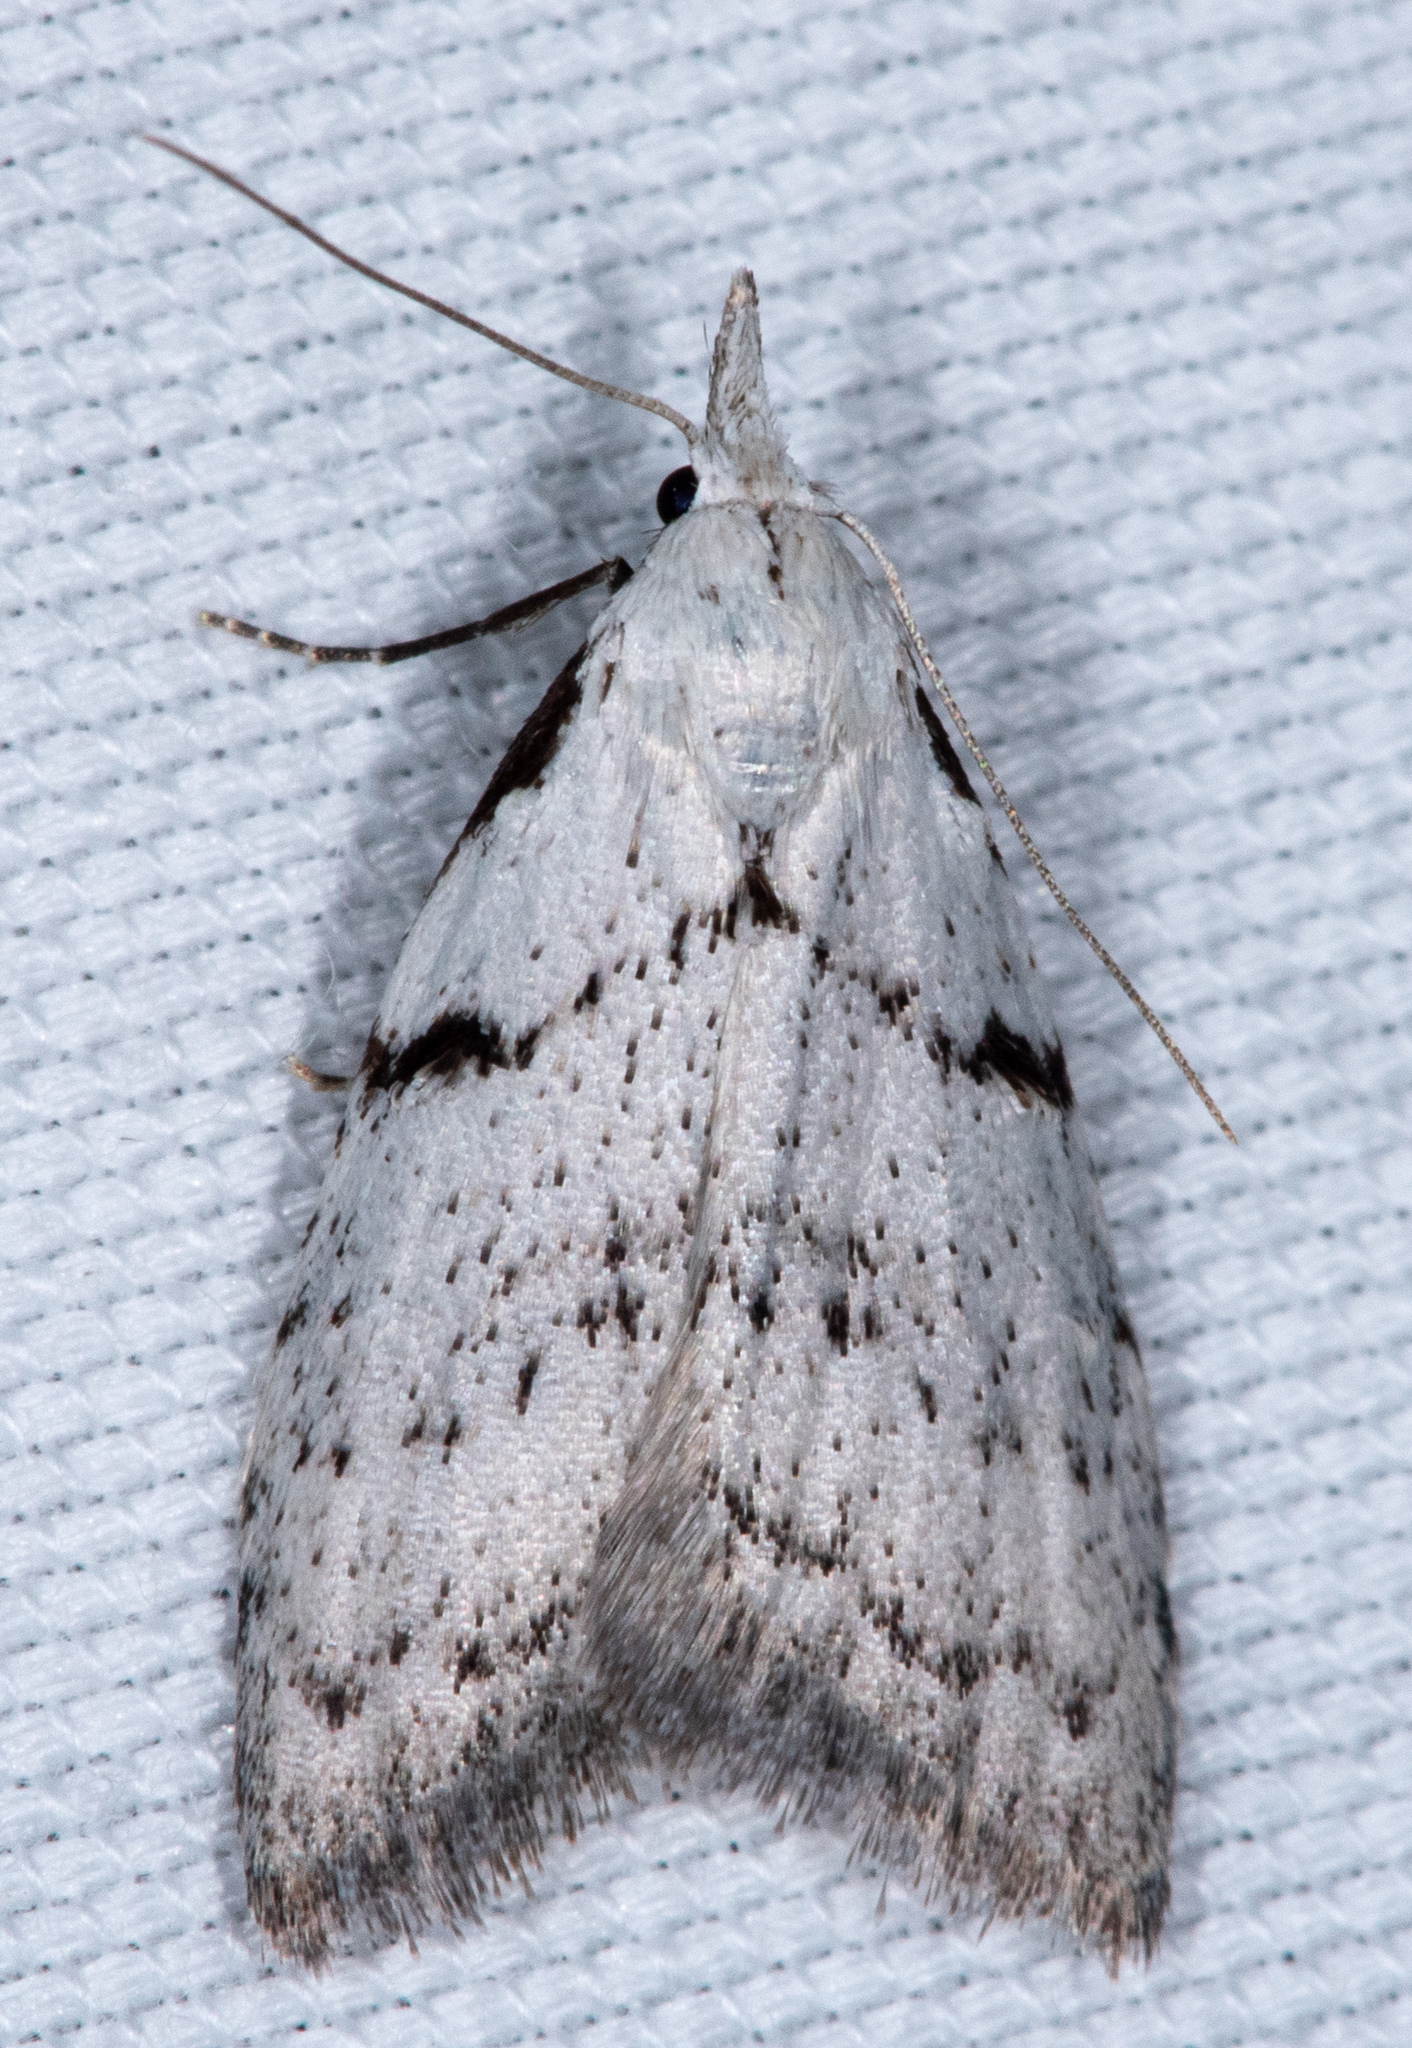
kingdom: Animalia
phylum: Arthropoda
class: Insecta
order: Lepidoptera
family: Nolidae
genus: Nola
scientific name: Nola minna
